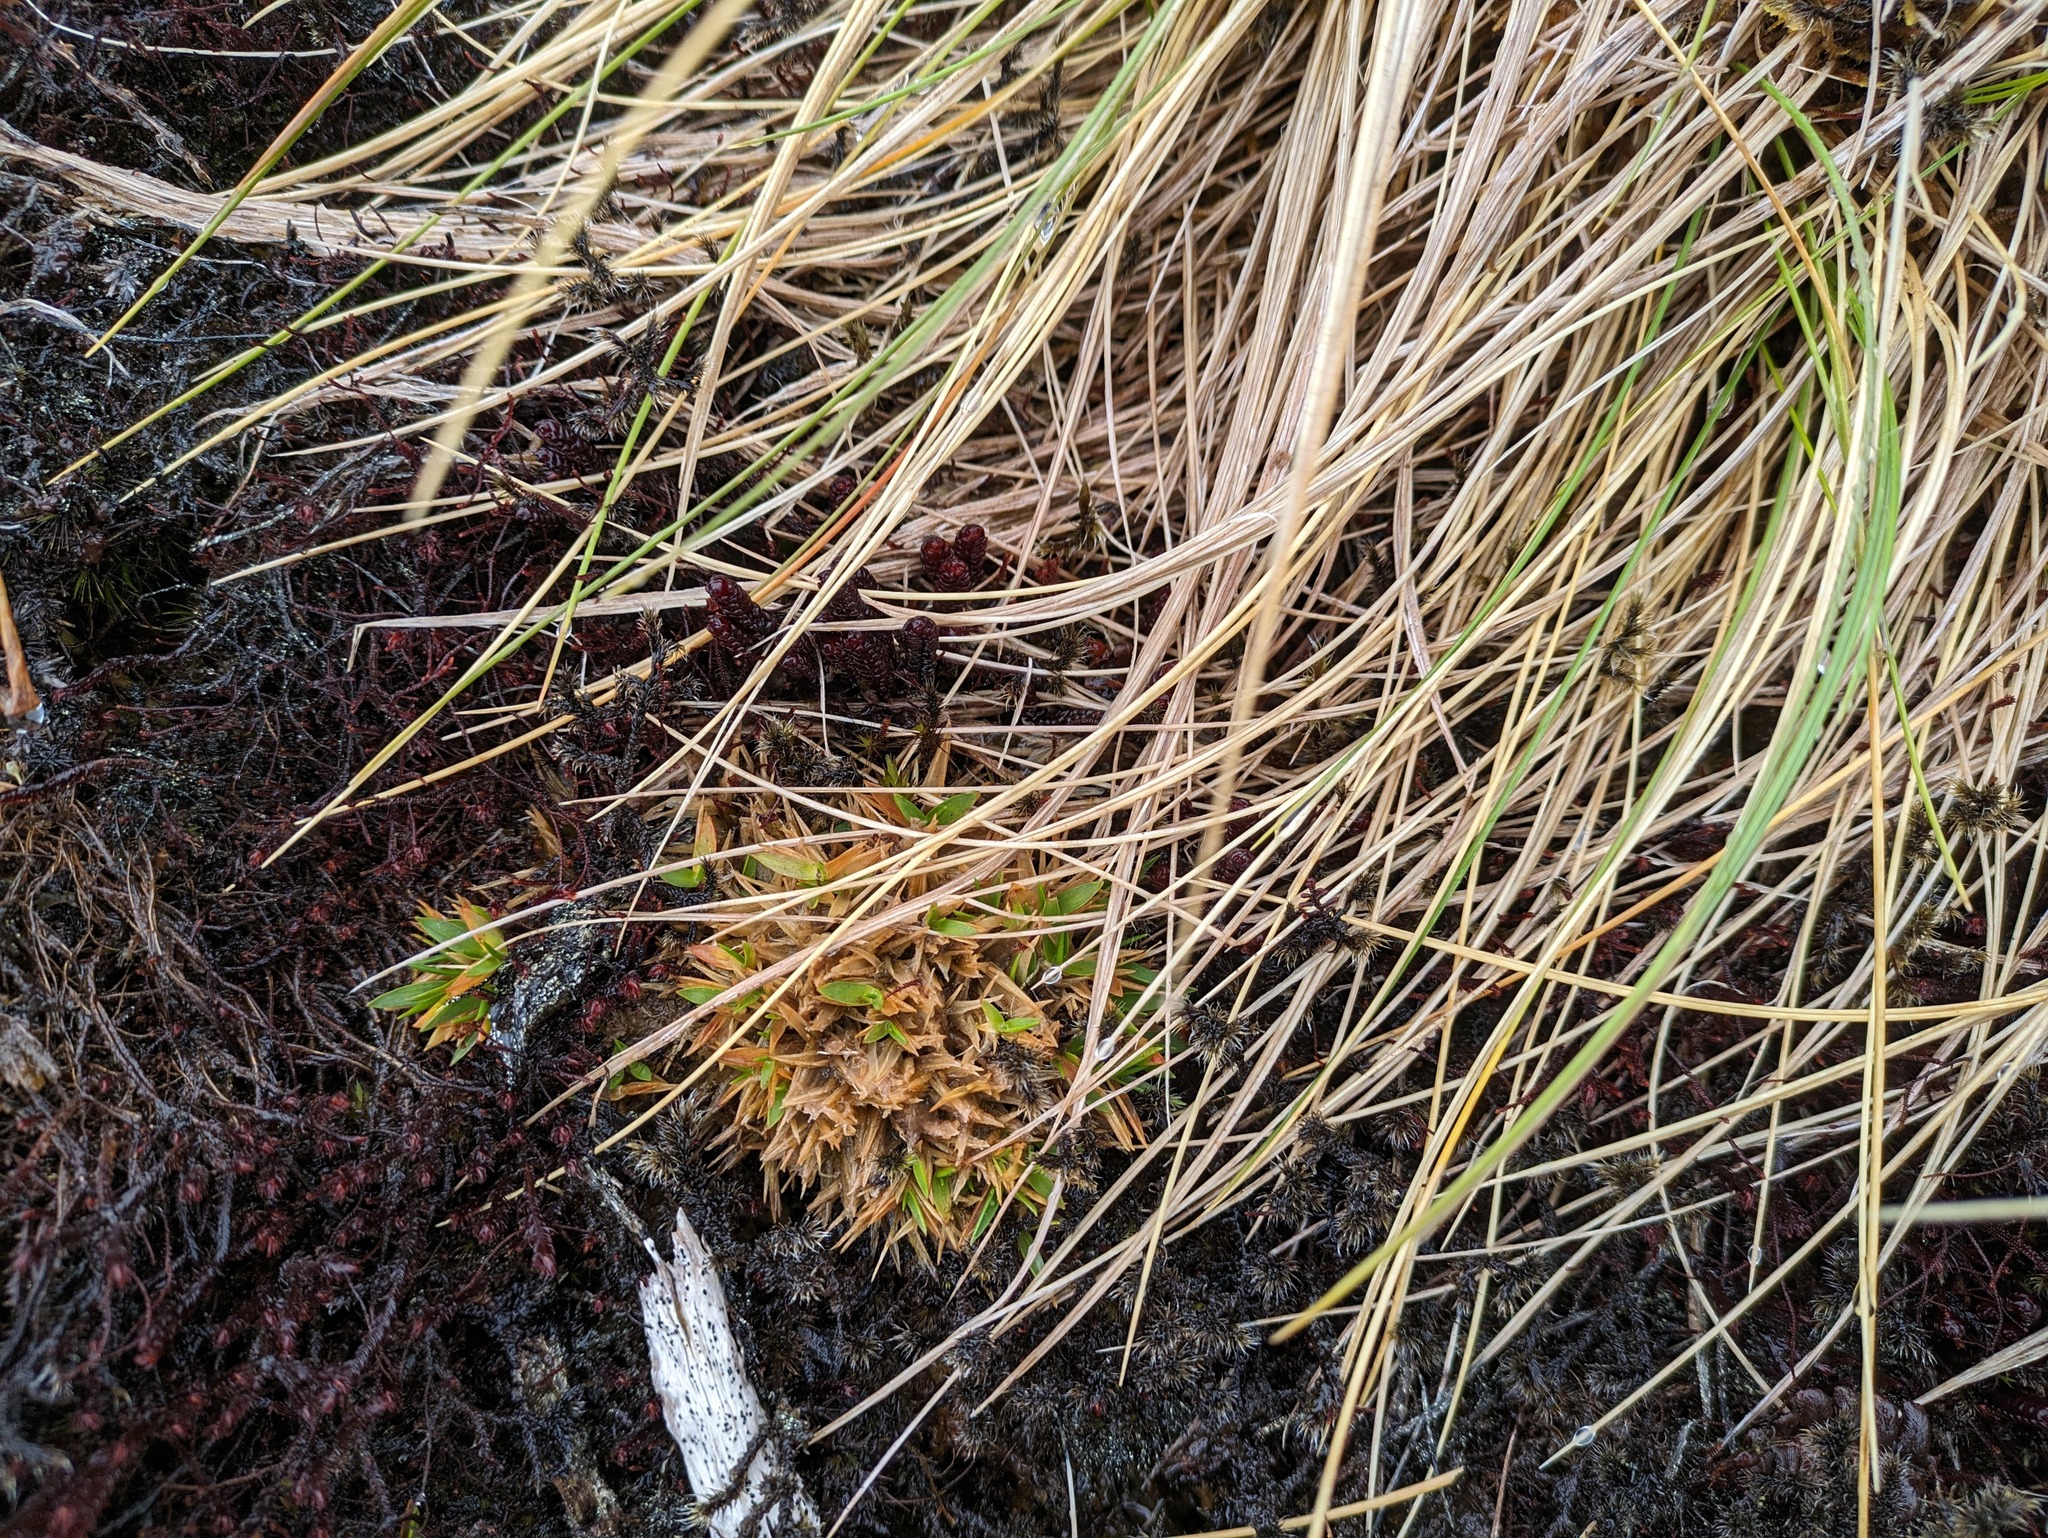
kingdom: Plantae
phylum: Tracheophyta
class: Liliopsida
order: Poales
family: Poaceae
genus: Dichanthelium
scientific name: Dichanthelium cynodon
